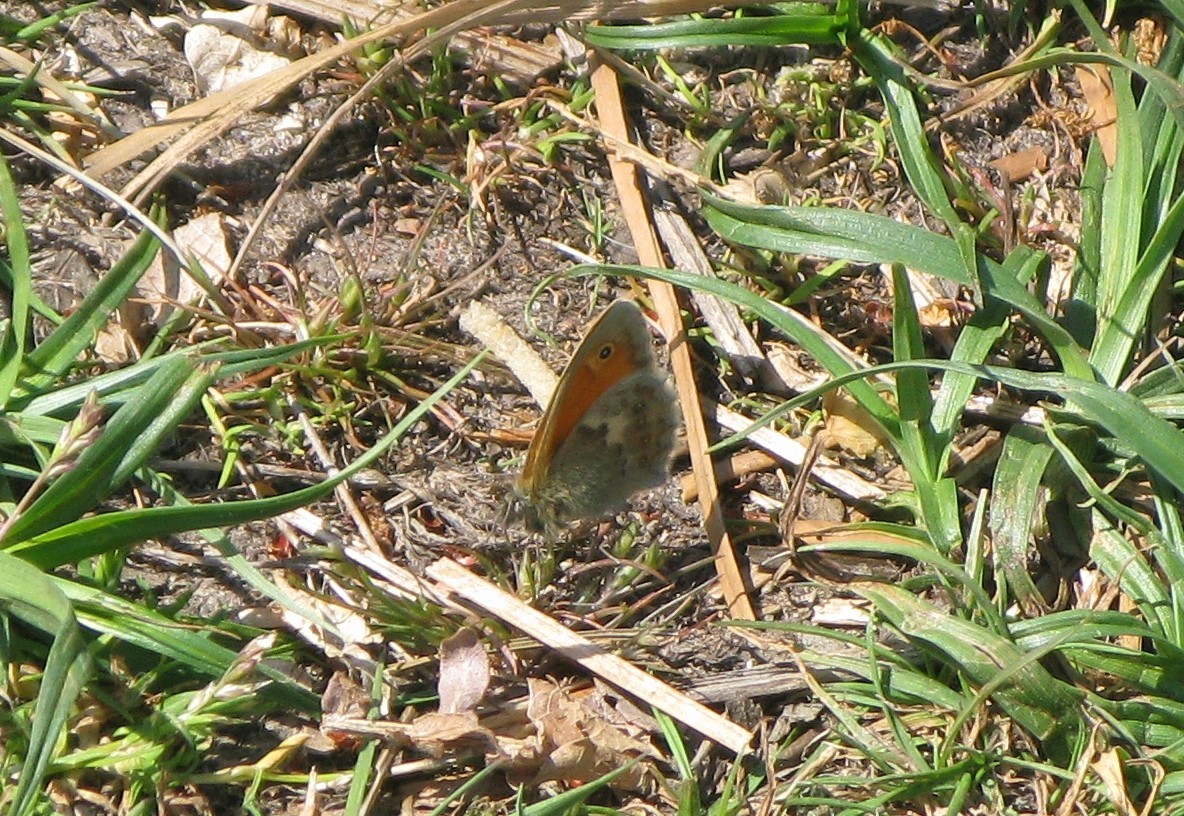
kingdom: Animalia
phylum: Arthropoda
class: Insecta
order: Lepidoptera
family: Nymphalidae
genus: Coenonympha
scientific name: Coenonympha pamphilus
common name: Small heath
